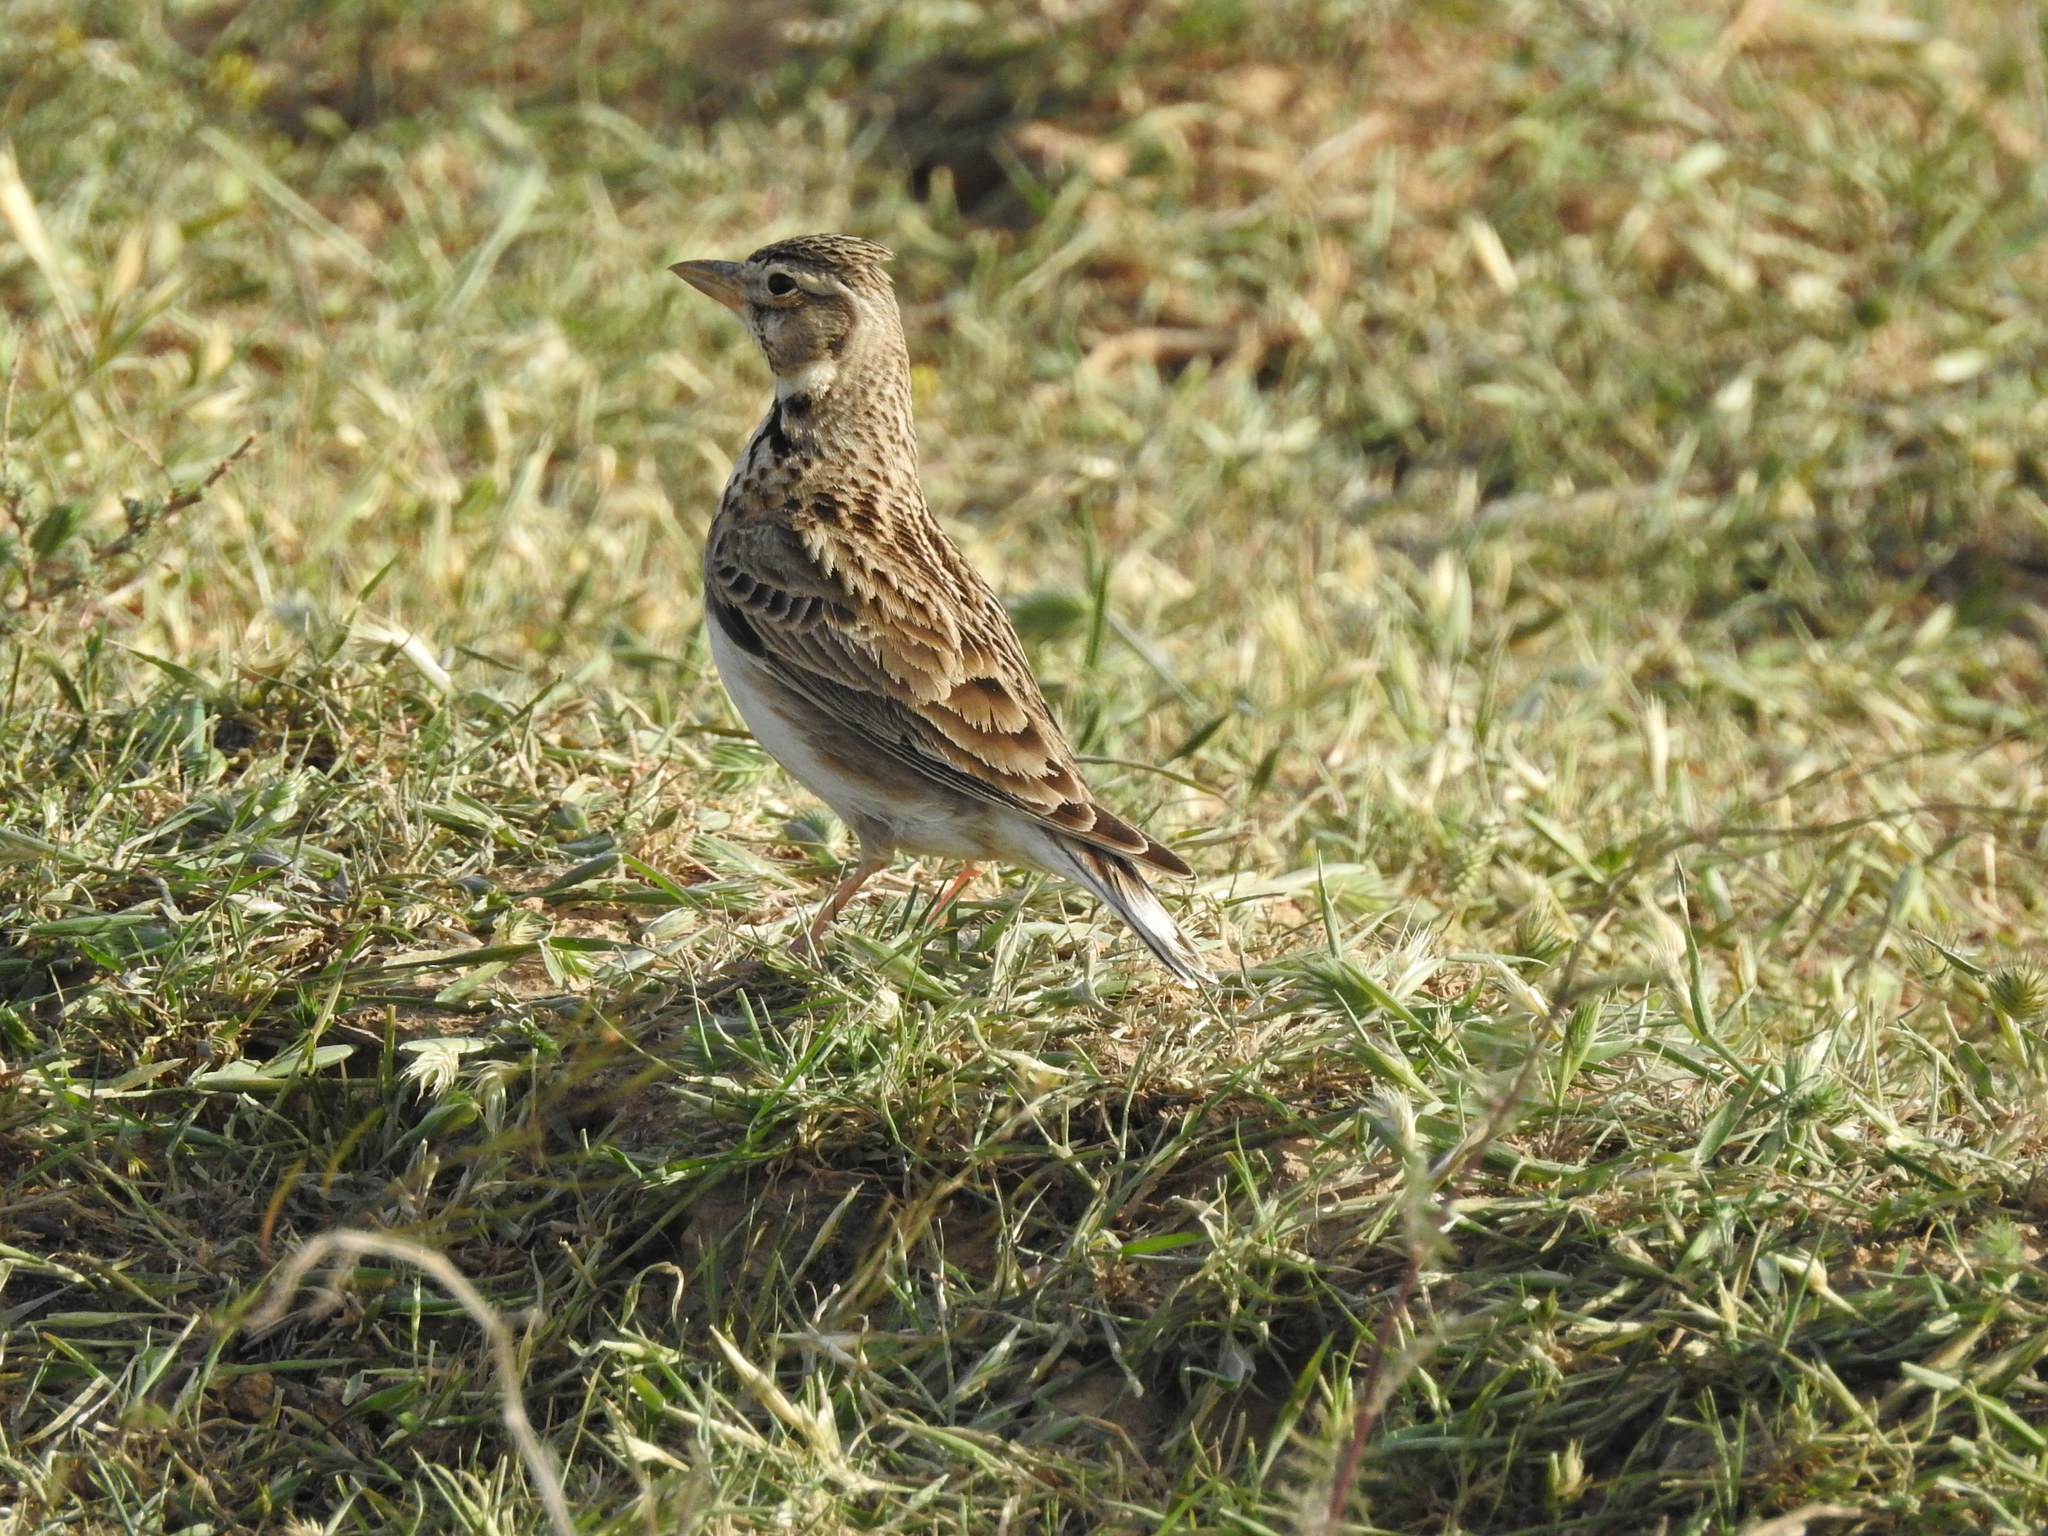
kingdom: Animalia
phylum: Chordata
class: Aves
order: Passeriformes
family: Alaudidae
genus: Melanocorypha
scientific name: Melanocorypha calandra
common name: Calandra lark
